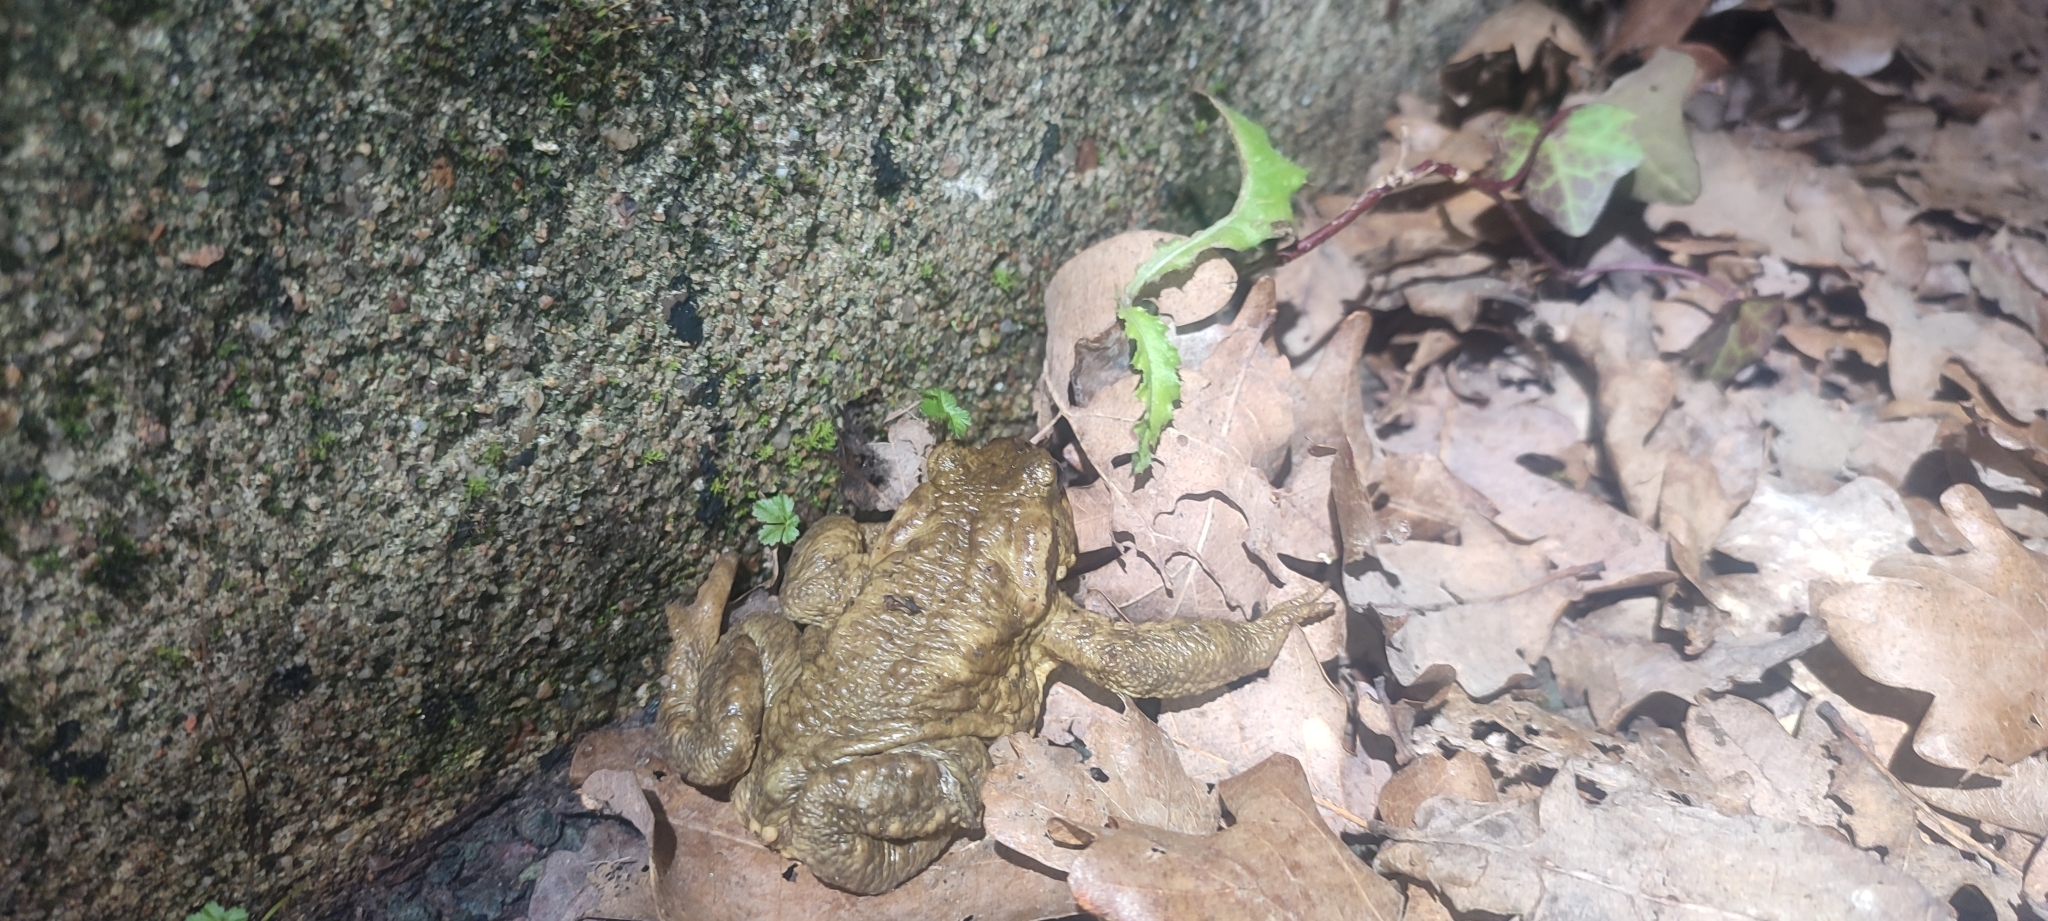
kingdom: Animalia
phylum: Chordata
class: Amphibia
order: Anura
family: Bufonidae
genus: Bufo
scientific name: Bufo spinosus
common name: Western common toad
